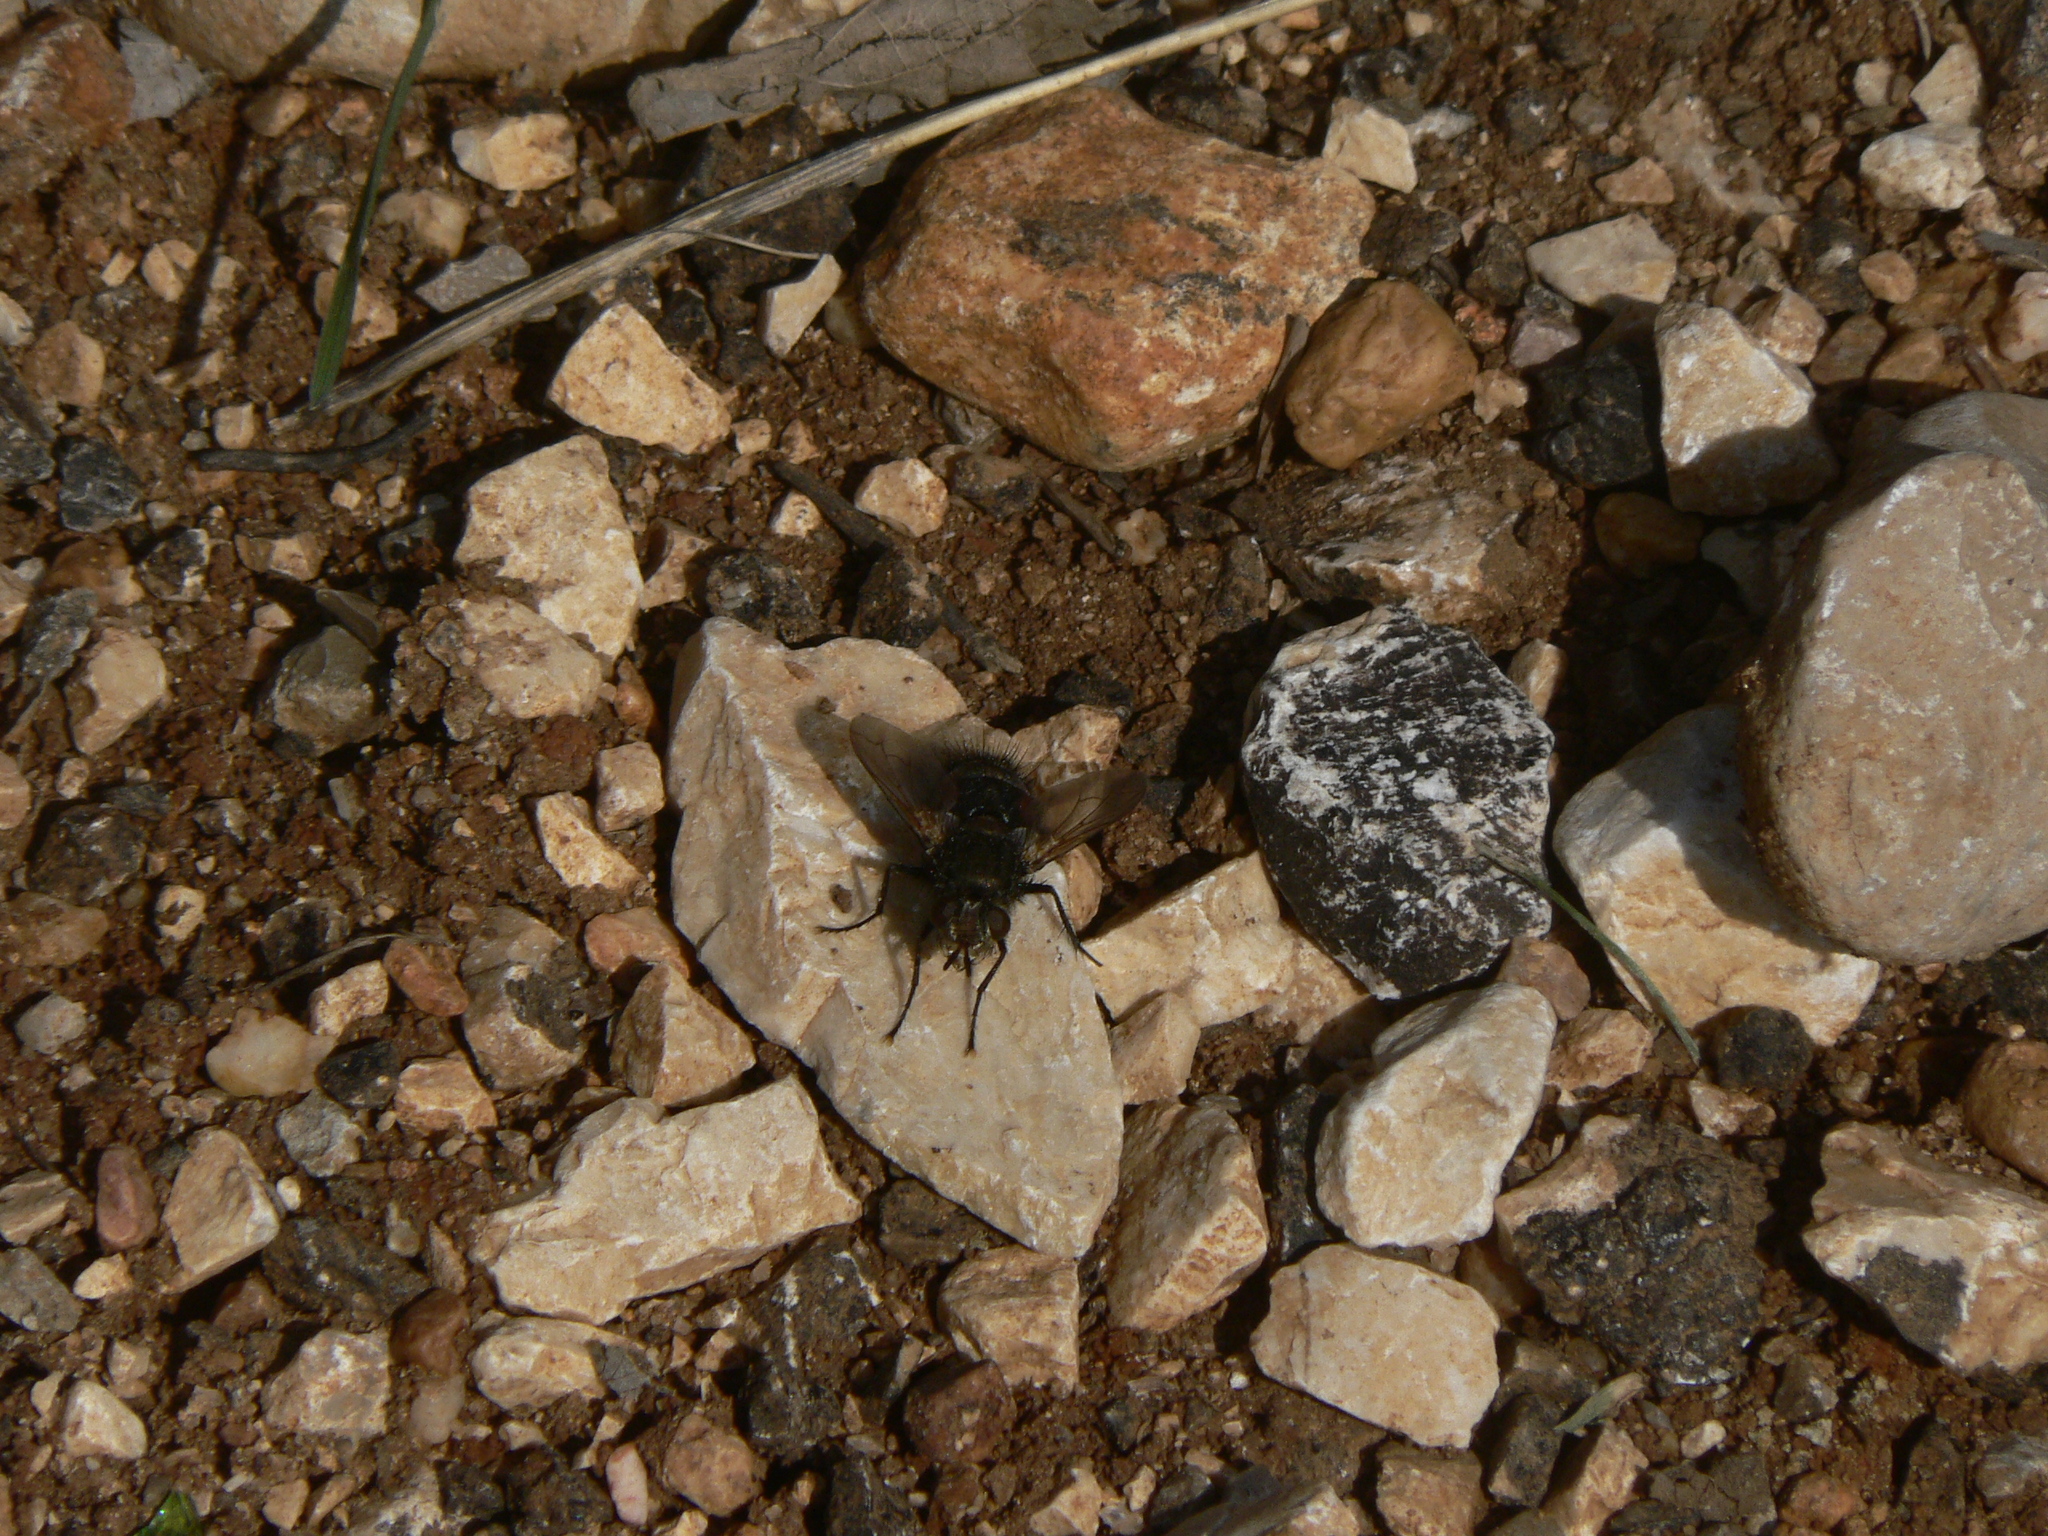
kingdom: Animalia
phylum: Arthropoda
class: Insecta
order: Diptera
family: Tachinidae
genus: Peleteria
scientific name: Peleteria meridionalis
